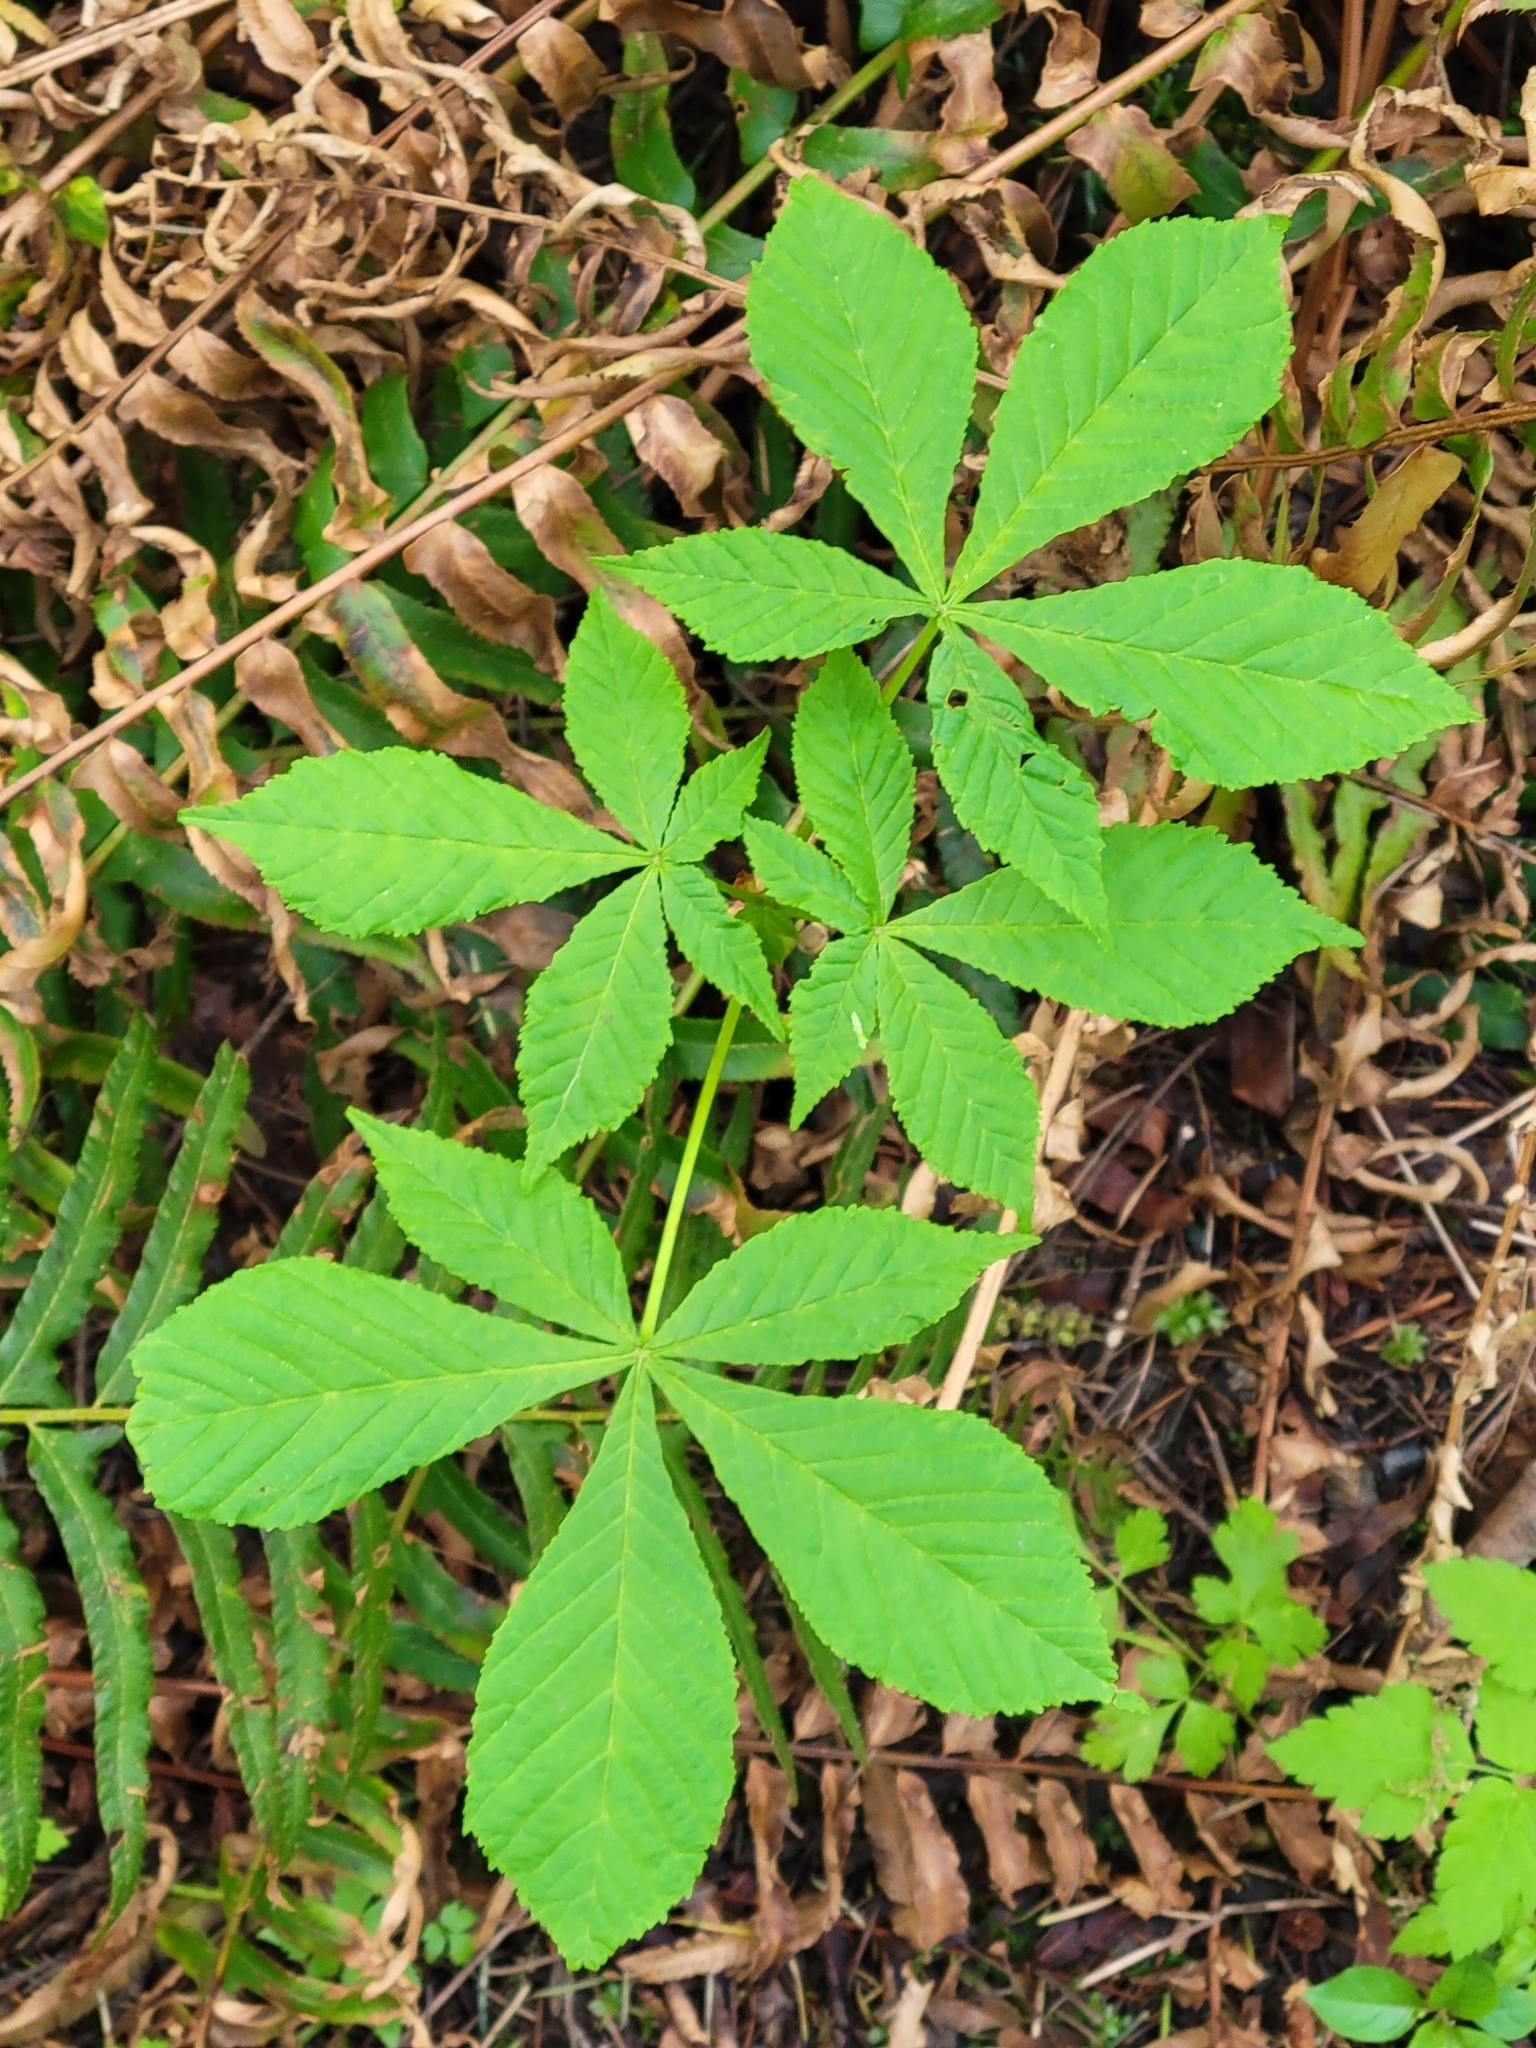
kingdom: Plantae
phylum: Tracheophyta
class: Magnoliopsida
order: Sapindales
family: Sapindaceae
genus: Aesculus
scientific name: Aesculus hippocastanum
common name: Horse-chestnut
